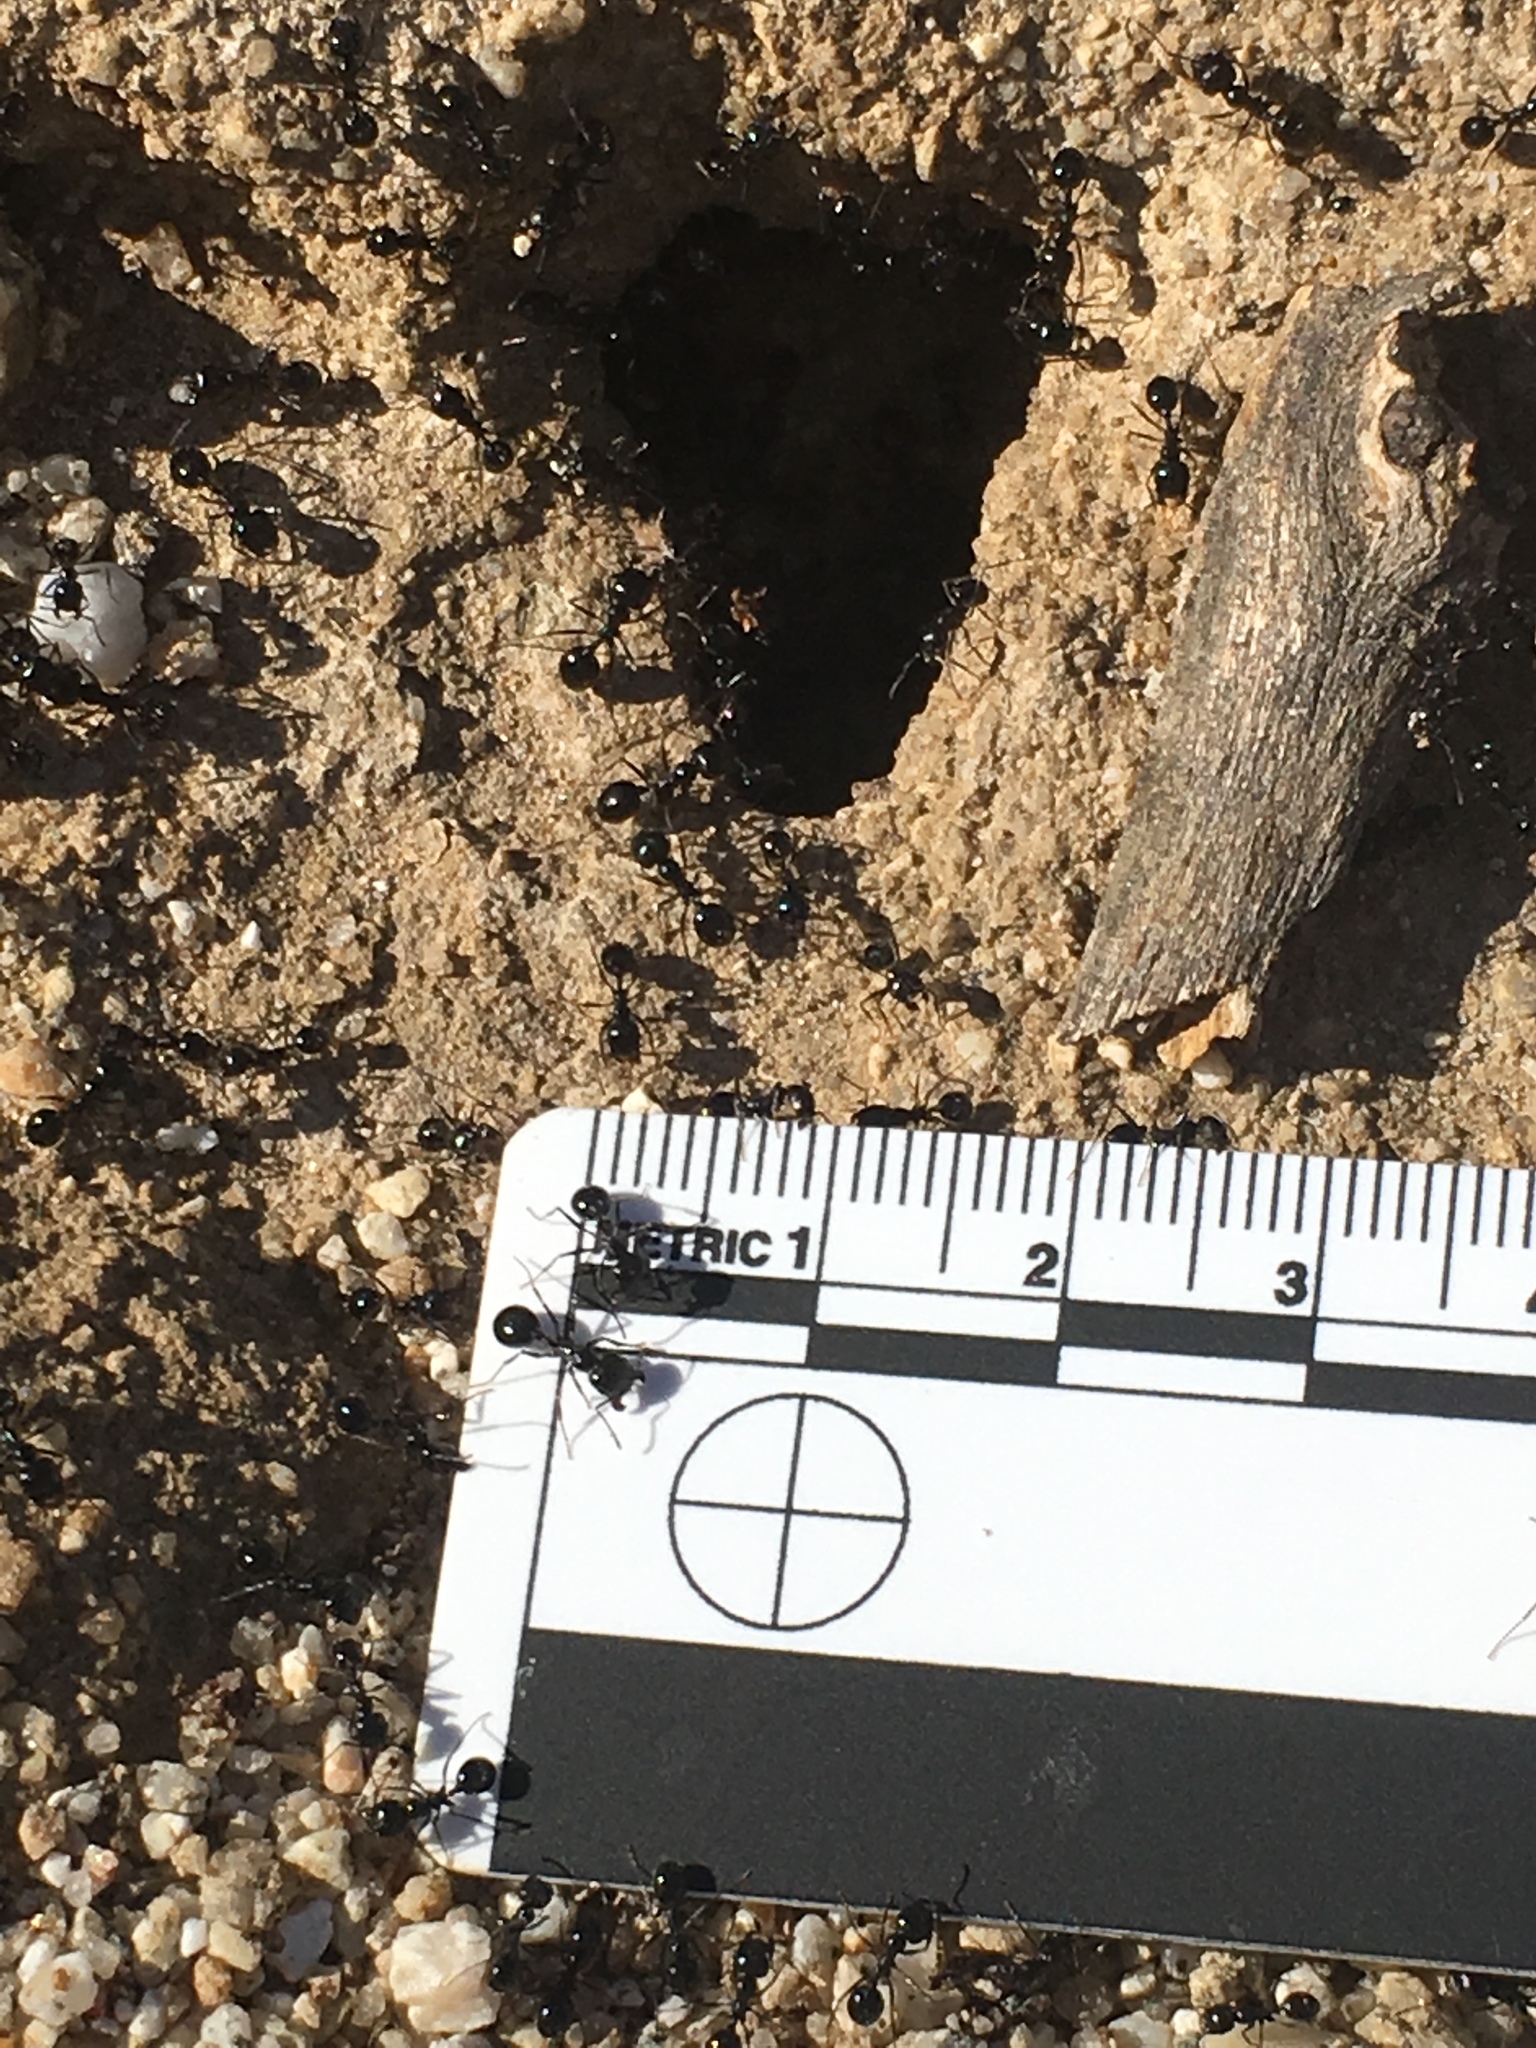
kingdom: Animalia
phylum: Arthropoda
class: Insecta
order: Hymenoptera
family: Formicidae
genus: Messor
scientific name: Messor pergandei
